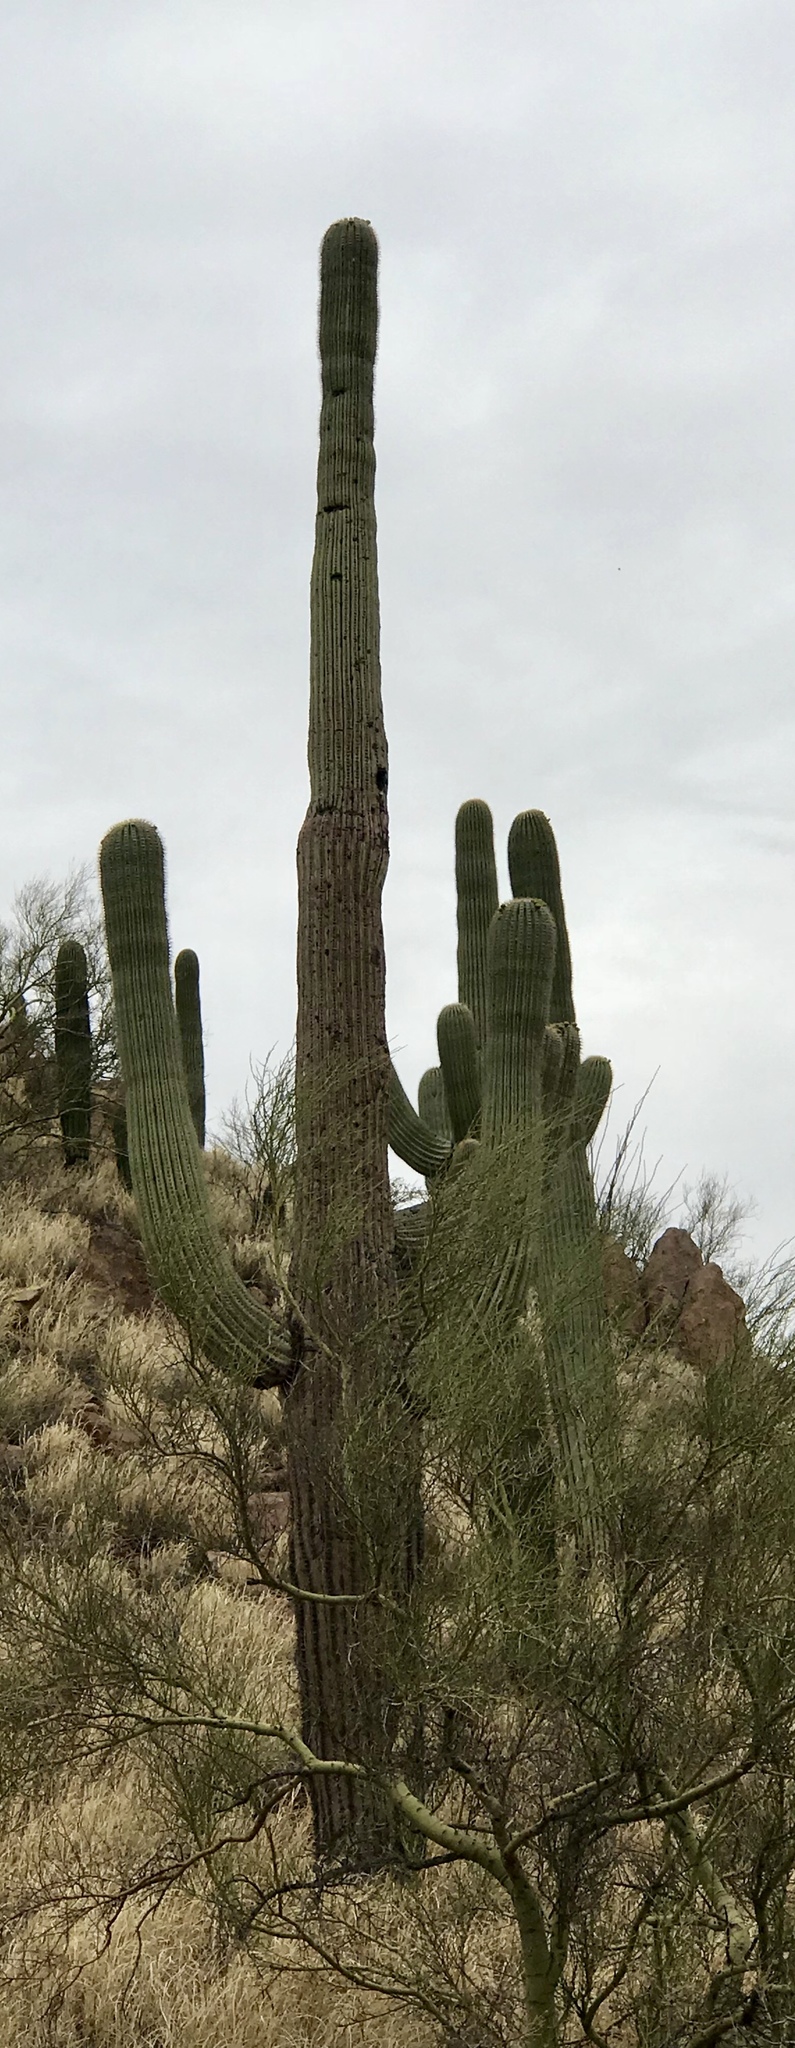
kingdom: Plantae
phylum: Tracheophyta
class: Magnoliopsida
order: Caryophyllales
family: Cactaceae
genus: Carnegiea
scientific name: Carnegiea gigantea
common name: Saguaro
